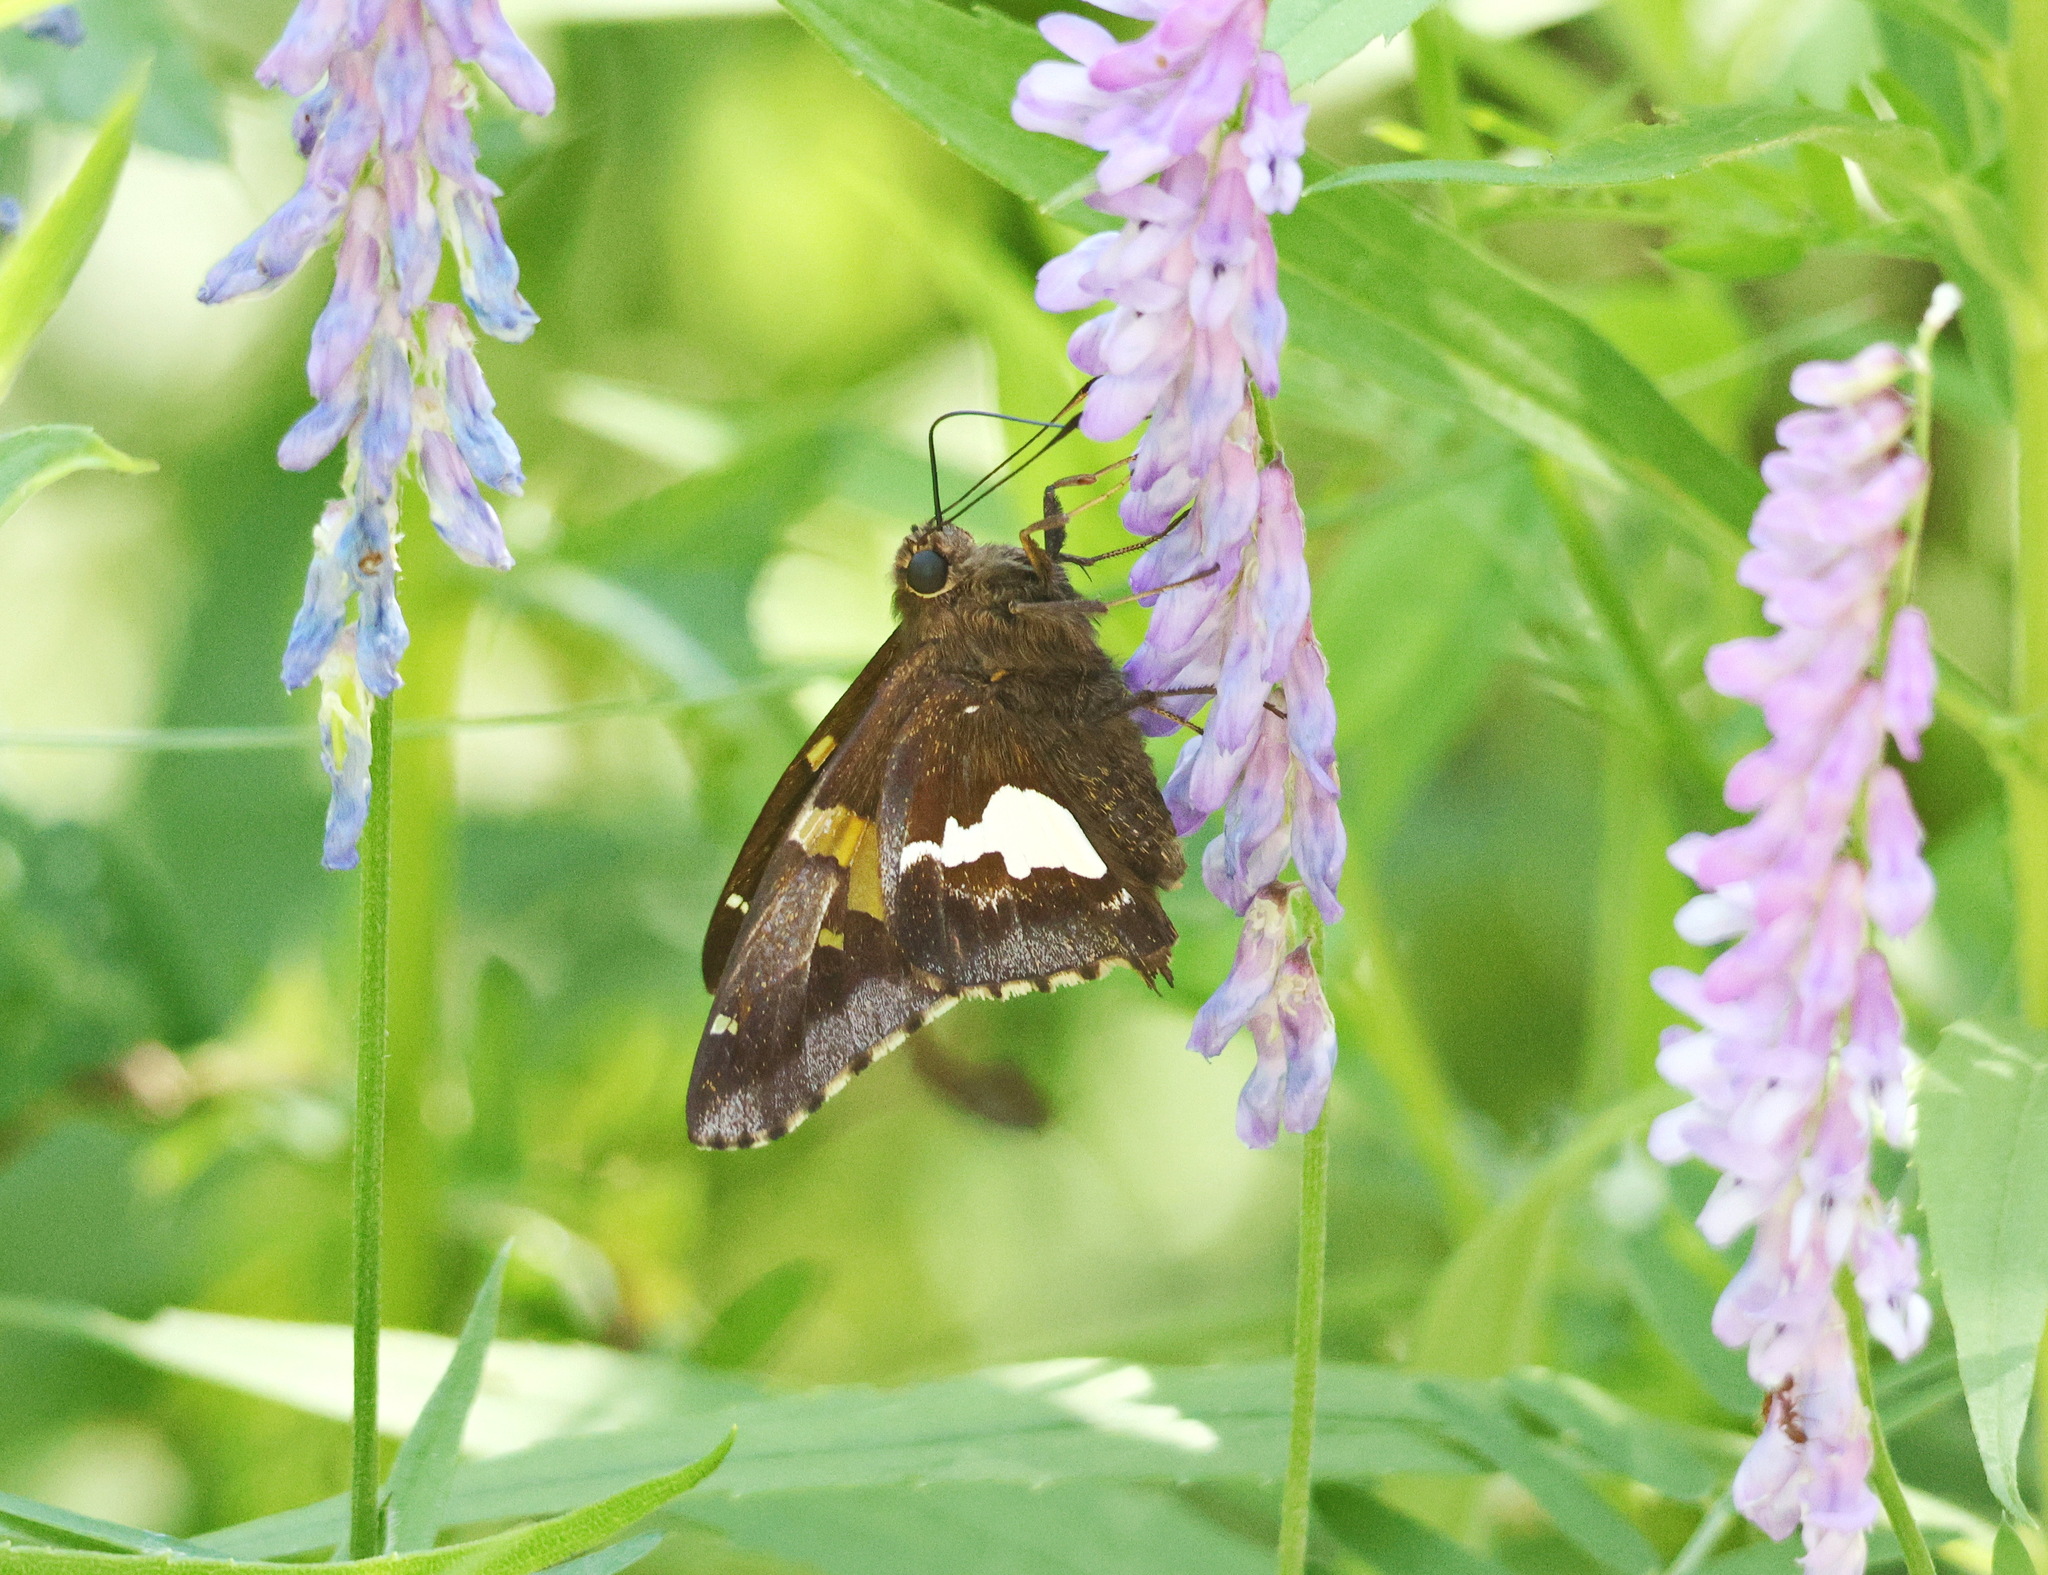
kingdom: Animalia
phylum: Arthropoda
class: Insecta
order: Lepidoptera
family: Hesperiidae
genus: Epargyreus
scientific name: Epargyreus clarus
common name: Silver-spotted skipper
